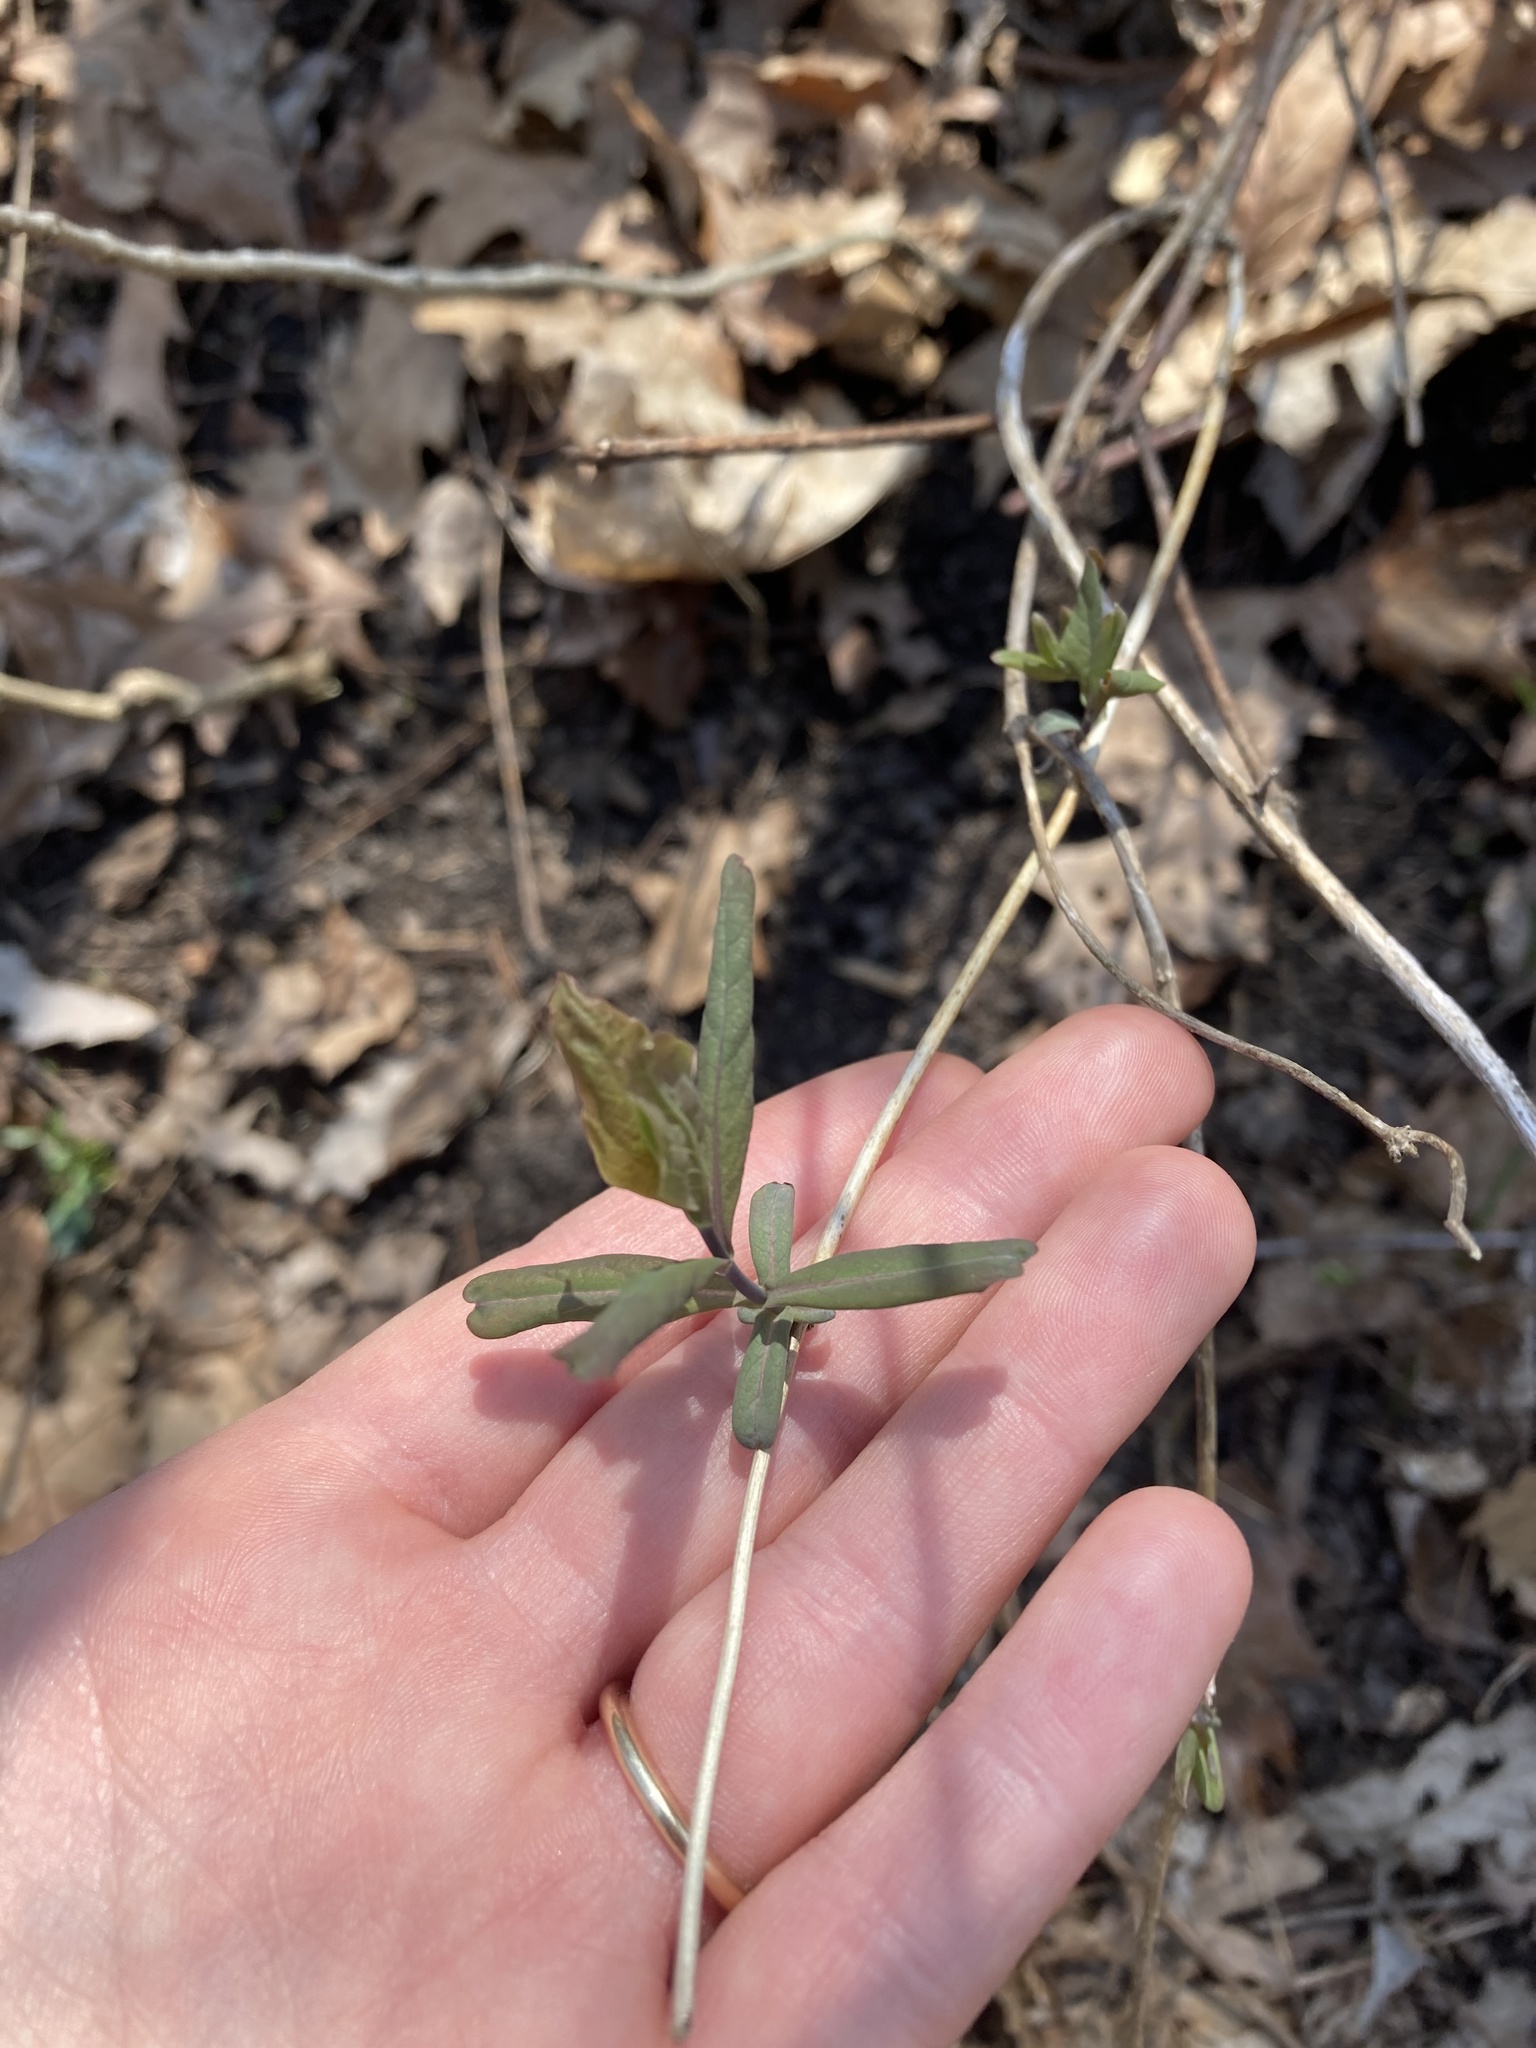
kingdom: Plantae
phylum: Tracheophyta
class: Magnoliopsida
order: Dipsacales
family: Caprifoliaceae
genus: Lonicera
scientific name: Lonicera dioica
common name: Limber honeysuckle
